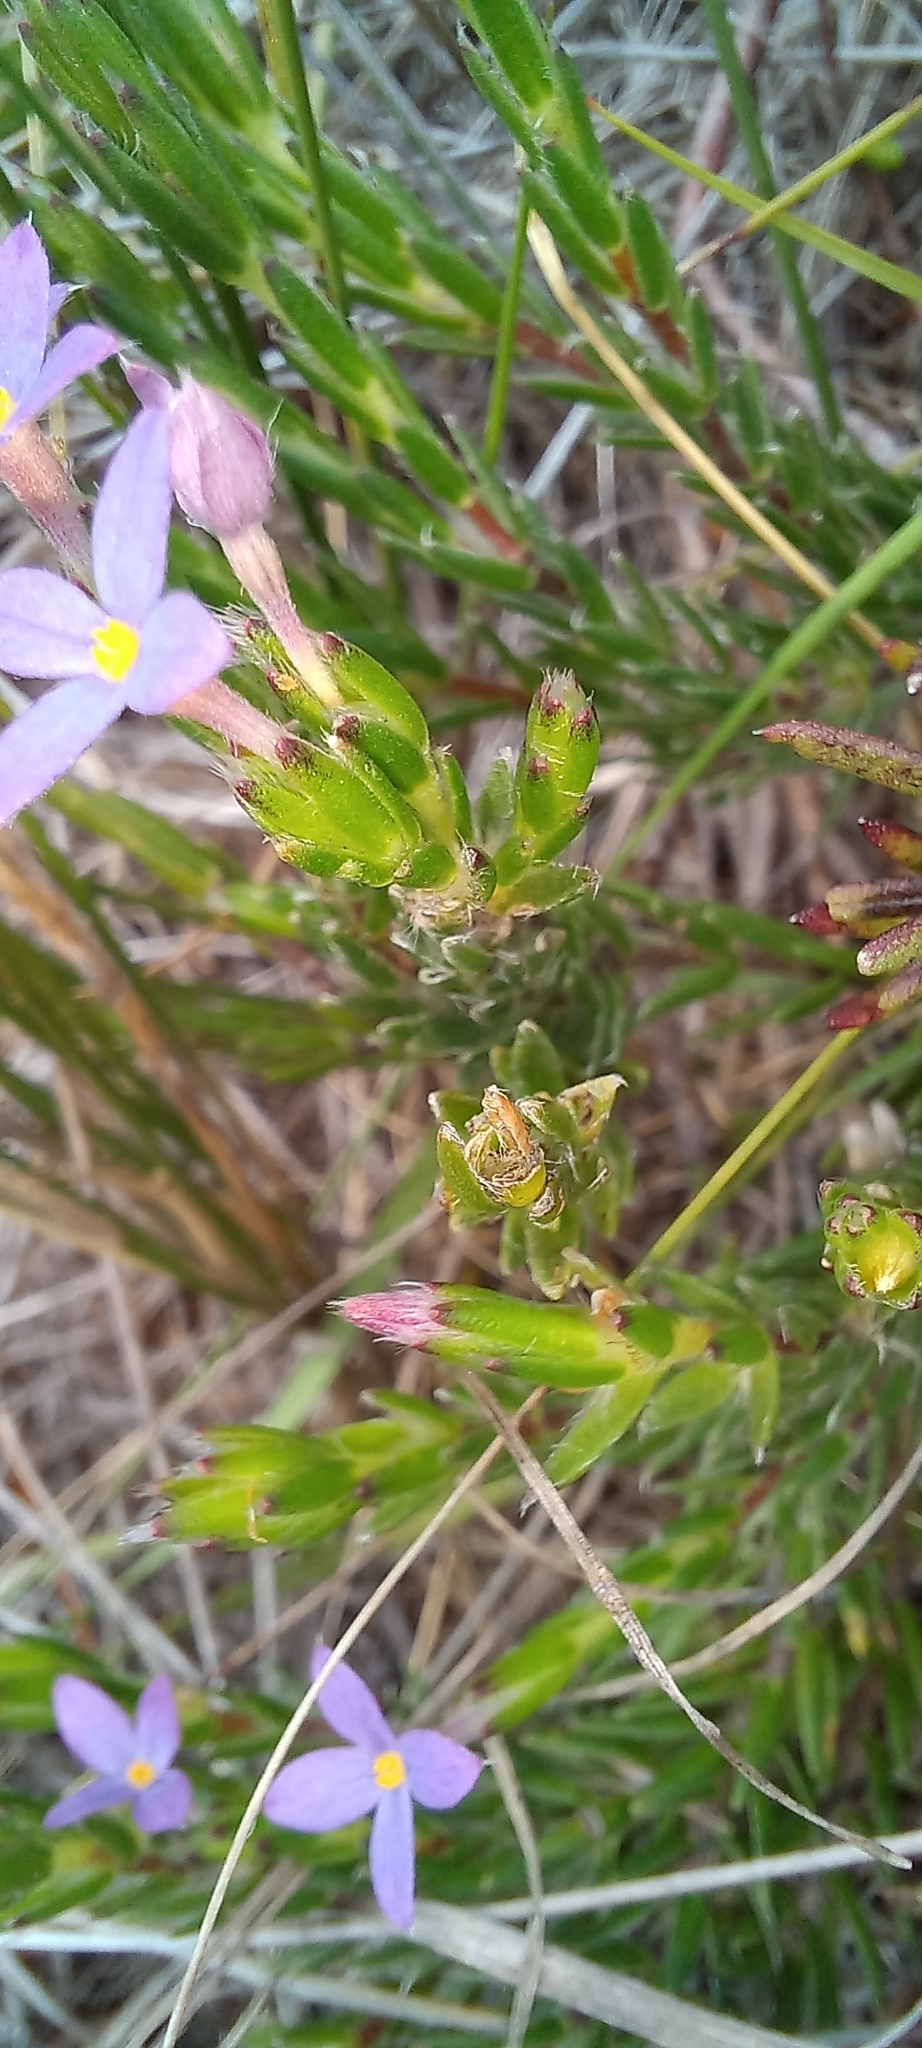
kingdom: Plantae
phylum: Tracheophyta
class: Magnoliopsida
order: Malvales
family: Thymelaeaceae
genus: Gnidia
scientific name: Gnidia penicillata
